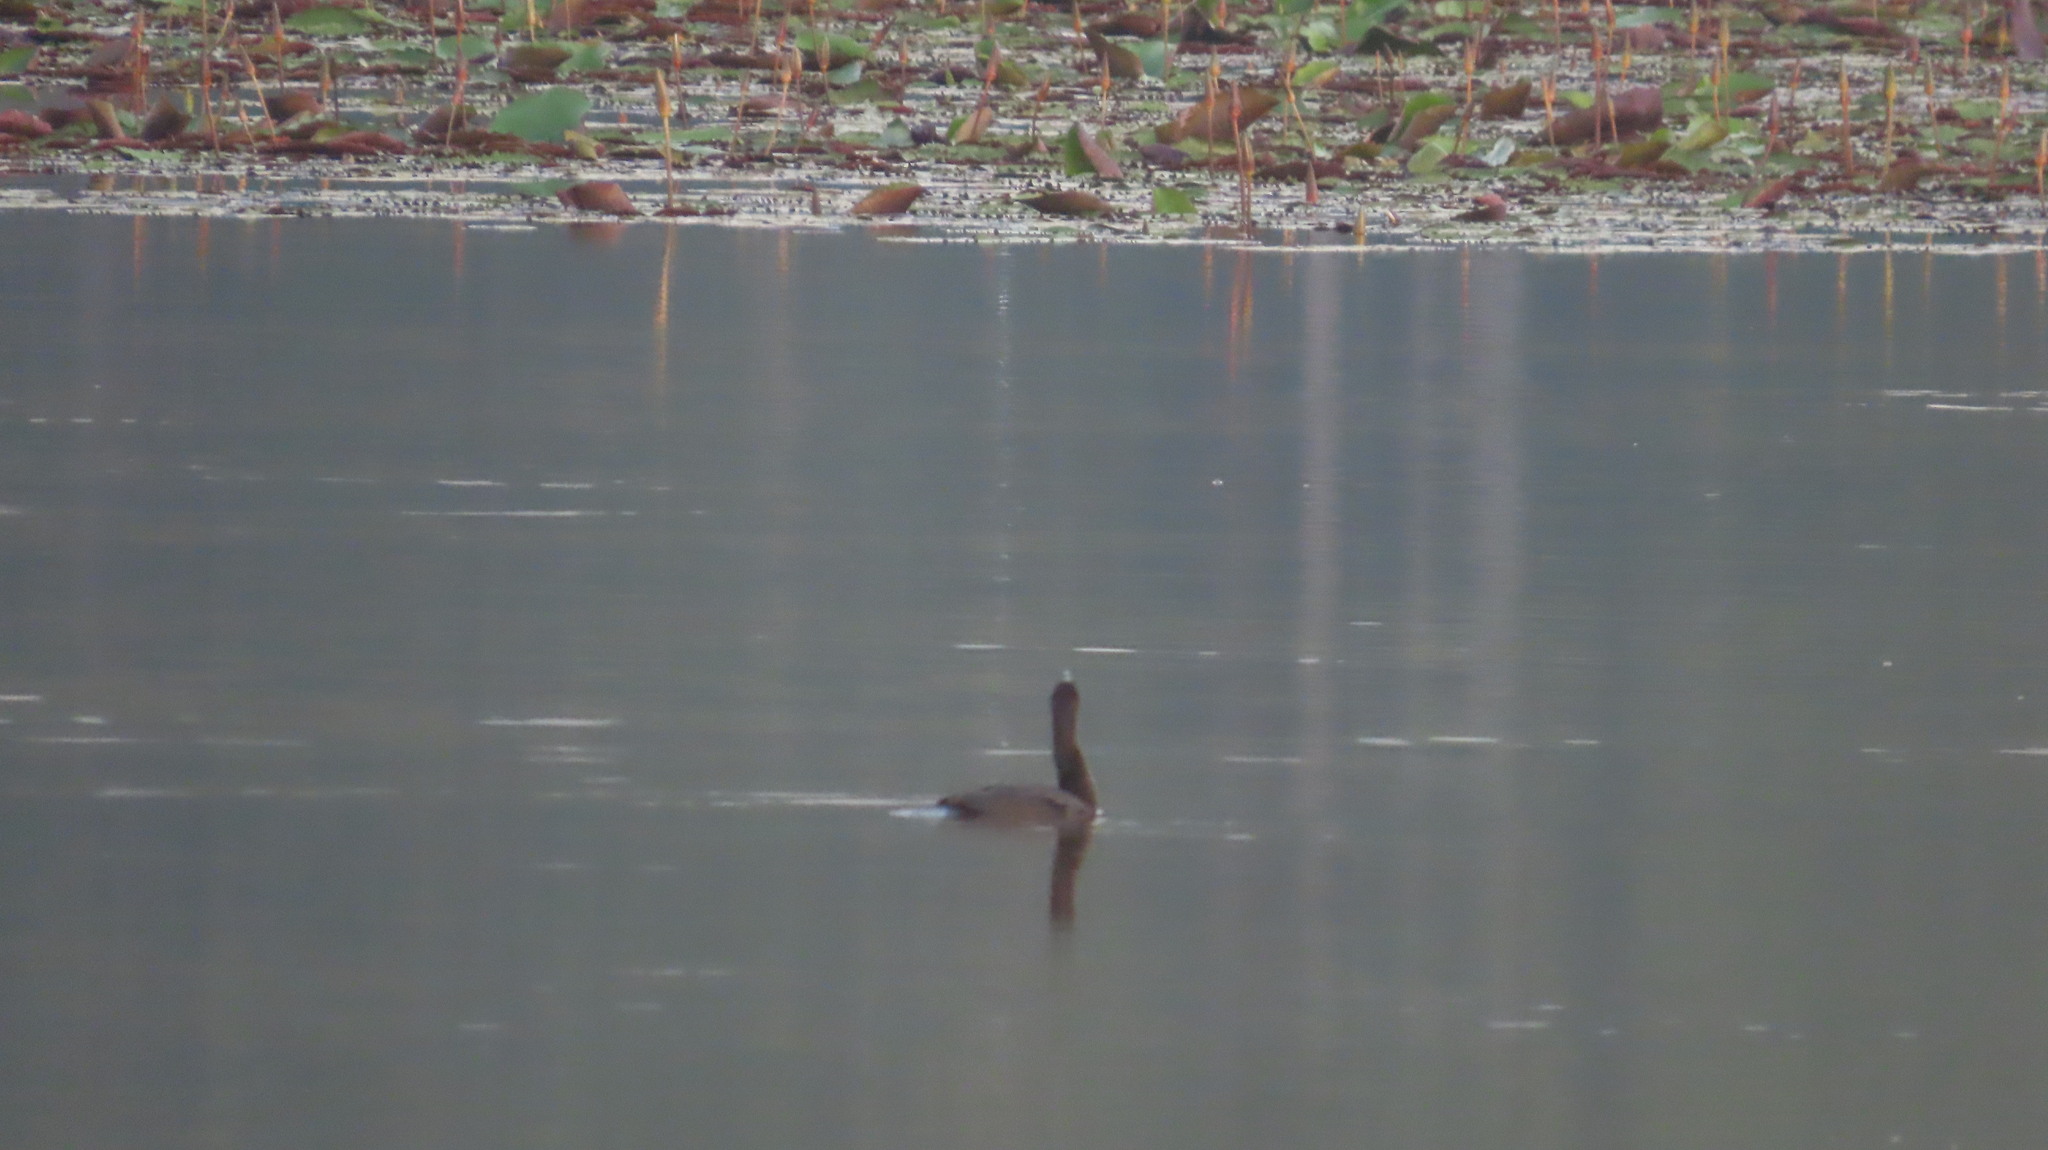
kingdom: Animalia
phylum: Chordata
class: Aves
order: Suliformes
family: Phalacrocoracidae
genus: Microcarbo
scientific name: Microcarbo niger
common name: Little cormorant
